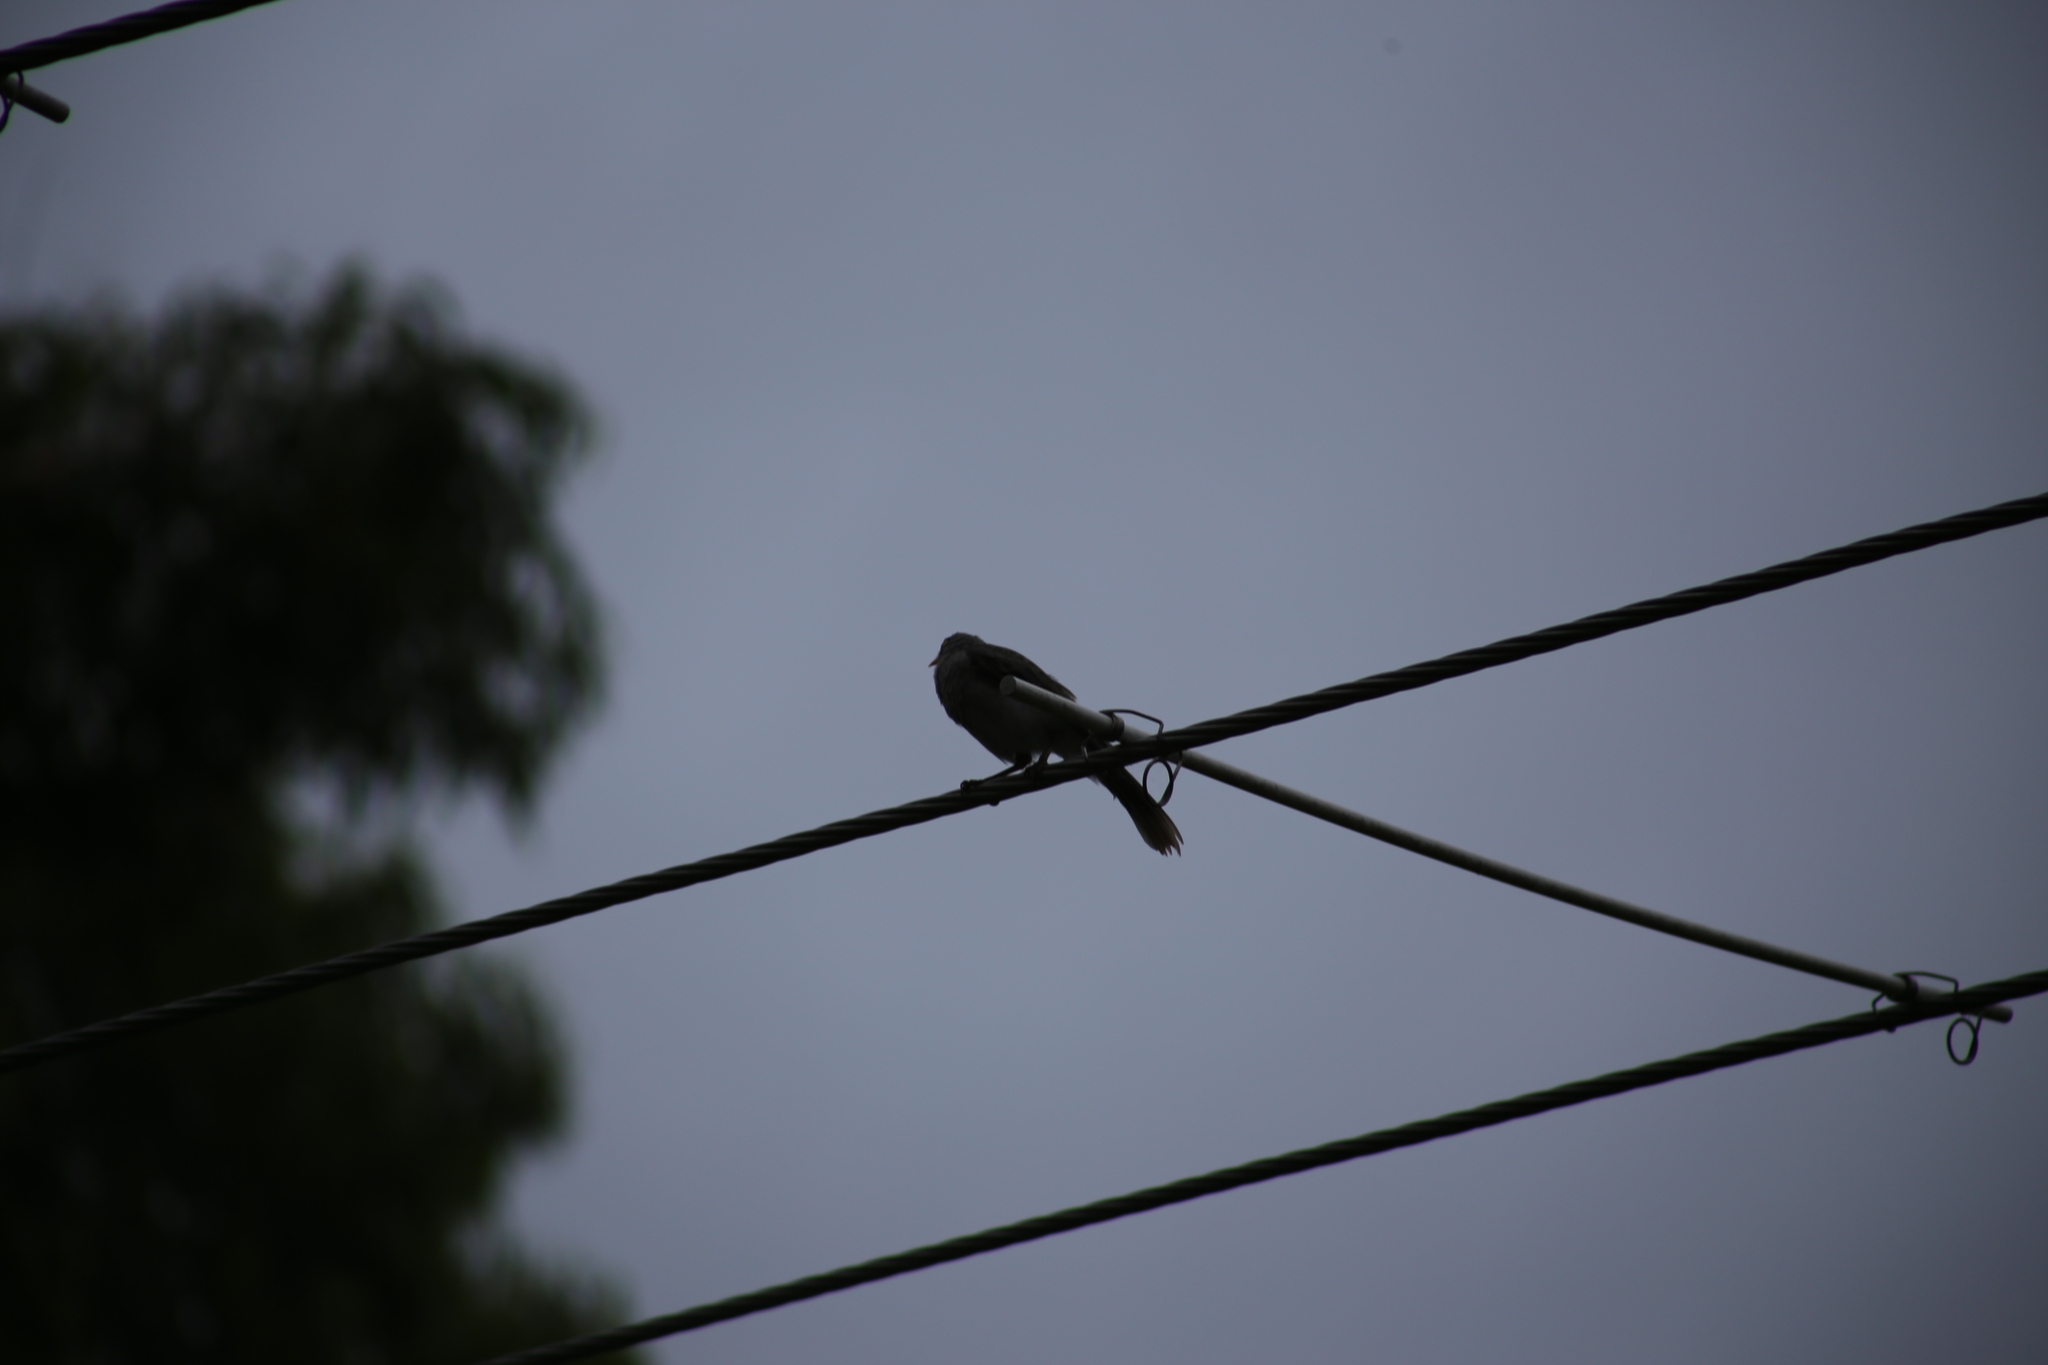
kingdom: Animalia
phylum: Chordata
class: Aves
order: Passeriformes
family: Meliphagidae
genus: Manorina
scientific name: Manorina melanocephala
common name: Noisy miner
